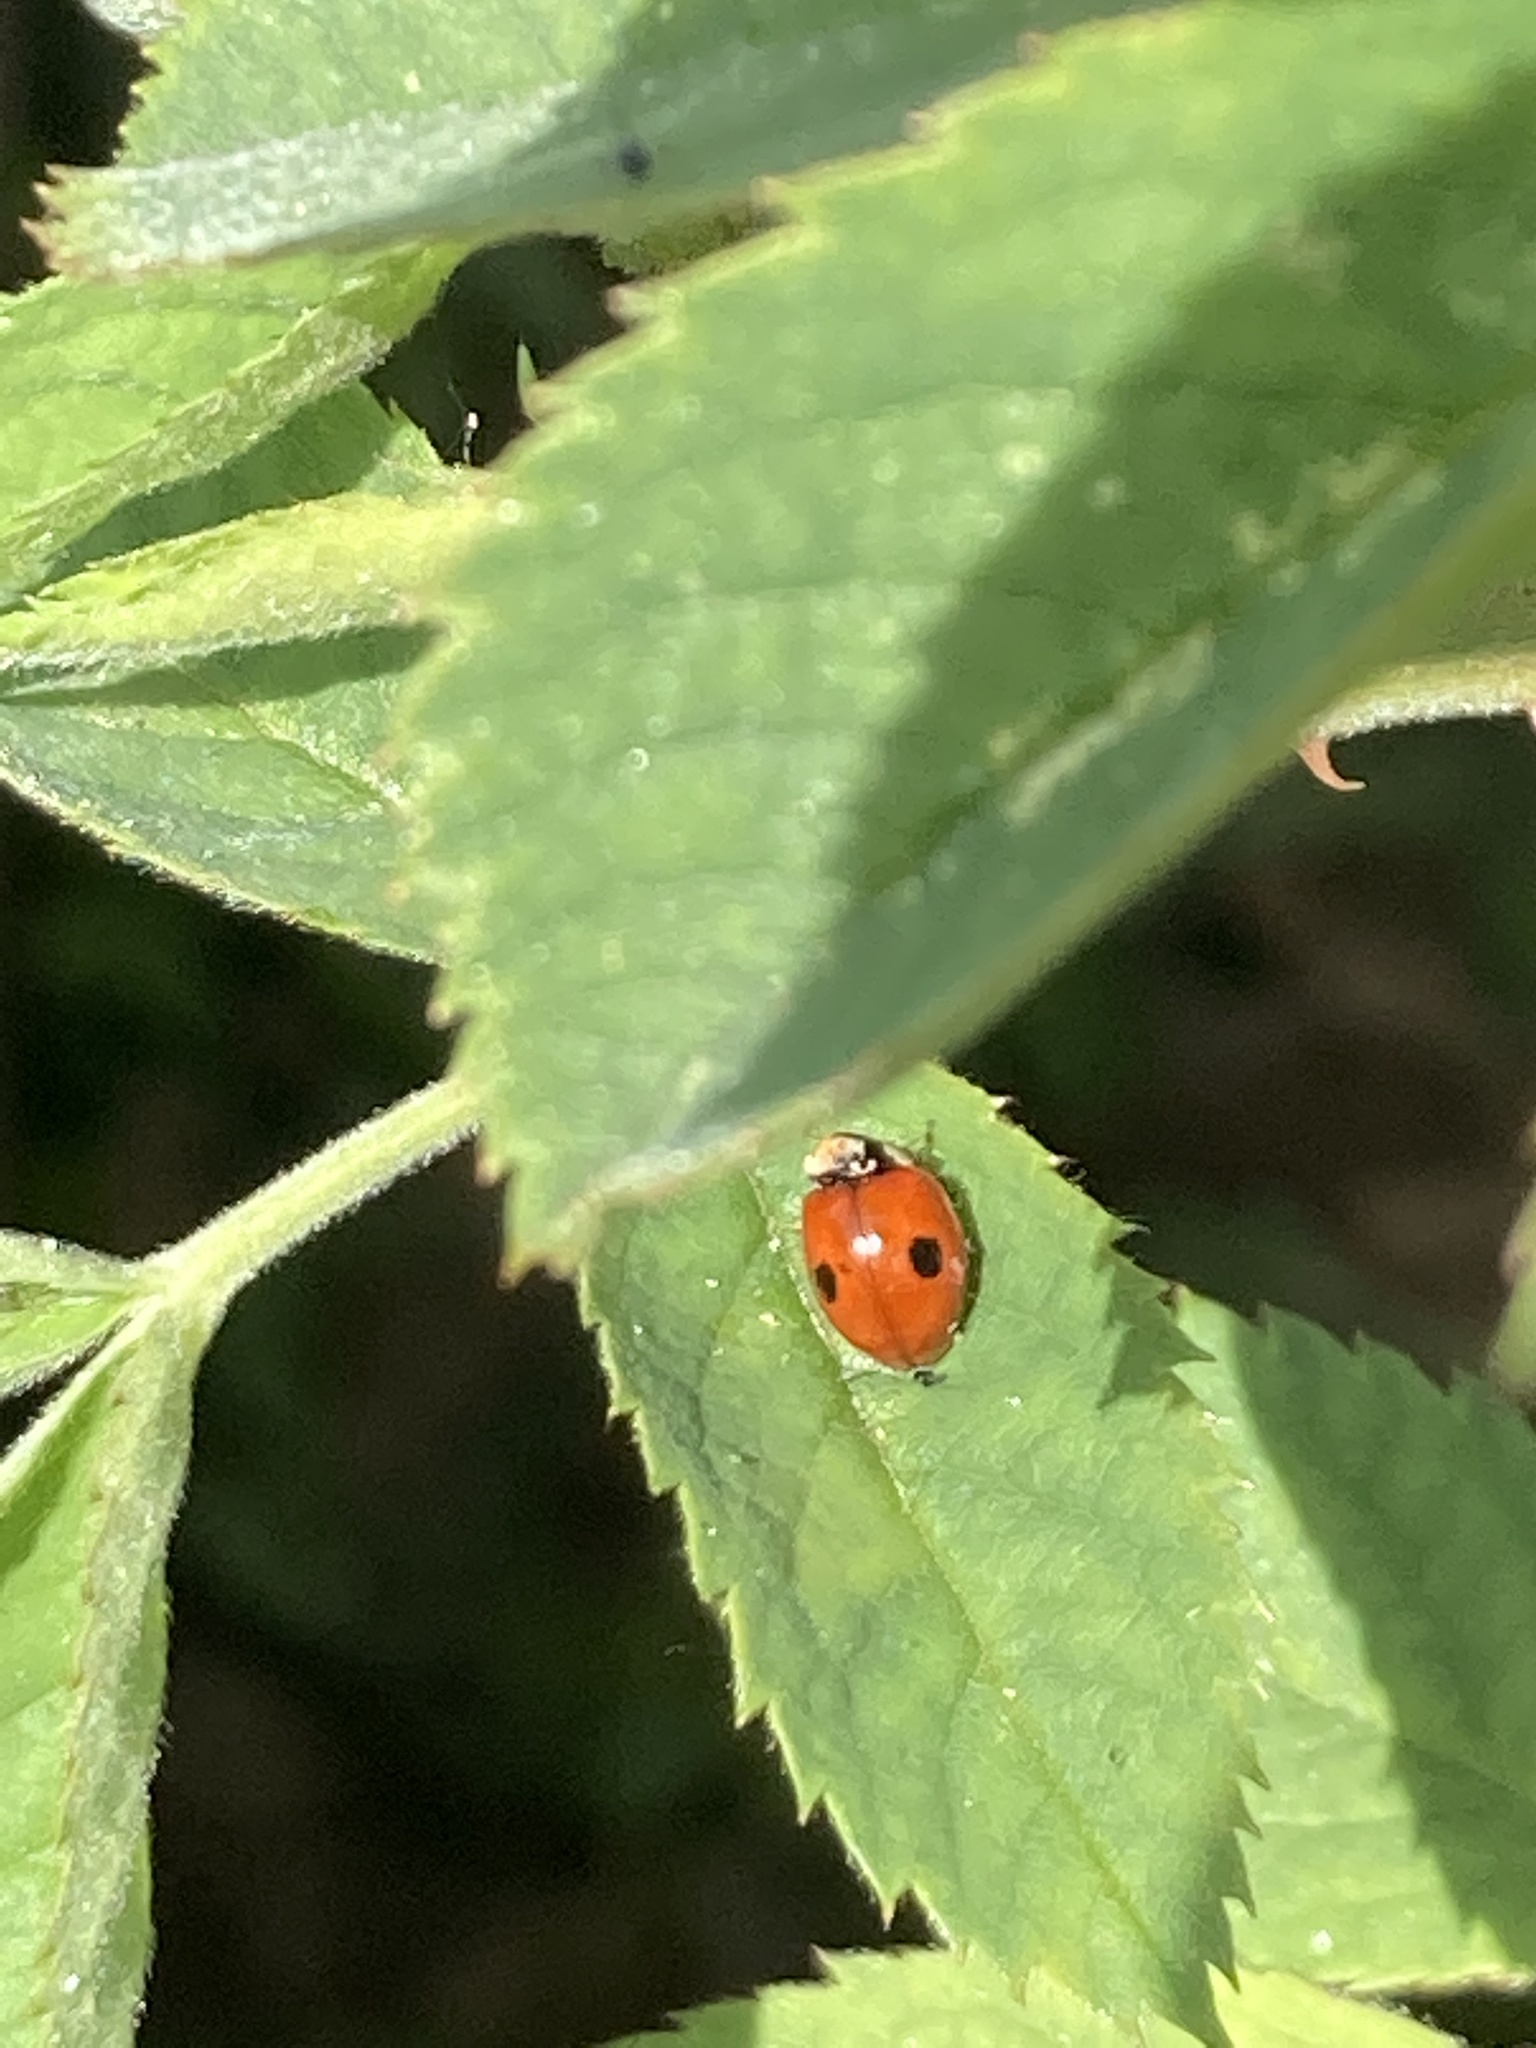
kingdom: Animalia
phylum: Arthropoda
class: Insecta
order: Coleoptera
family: Coccinellidae
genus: Adalia
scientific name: Adalia bipunctata
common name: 2-spot ladybird
